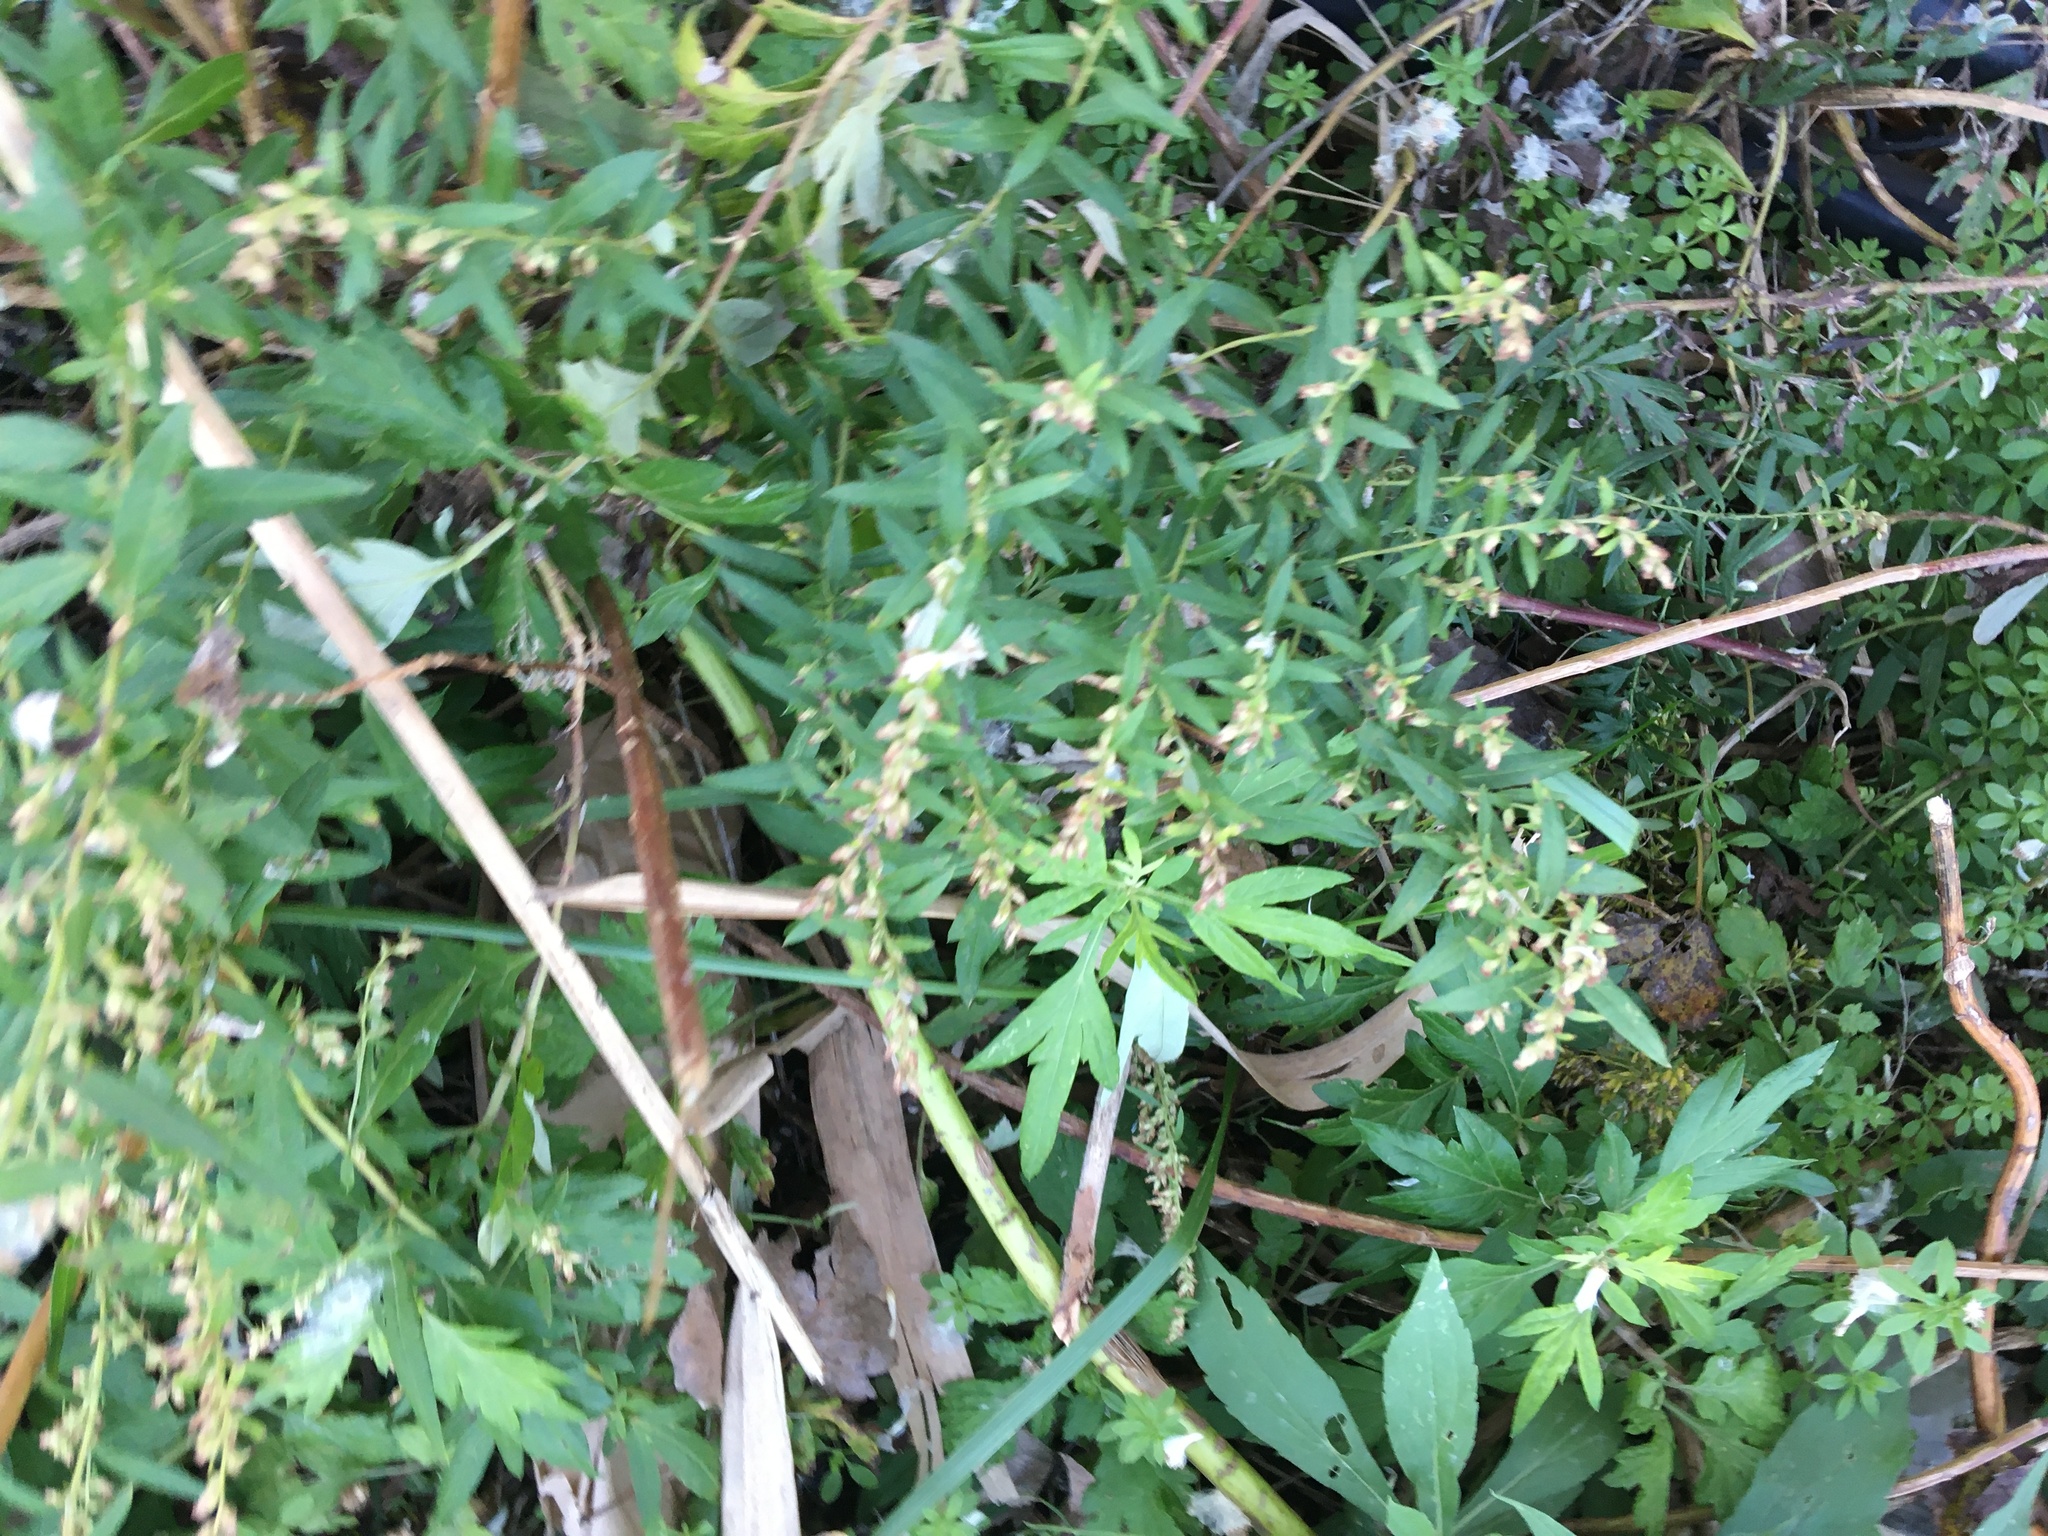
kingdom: Plantae
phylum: Tracheophyta
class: Magnoliopsida
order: Asterales
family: Asteraceae
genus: Artemisia
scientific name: Artemisia vulgaris
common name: Mugwort
